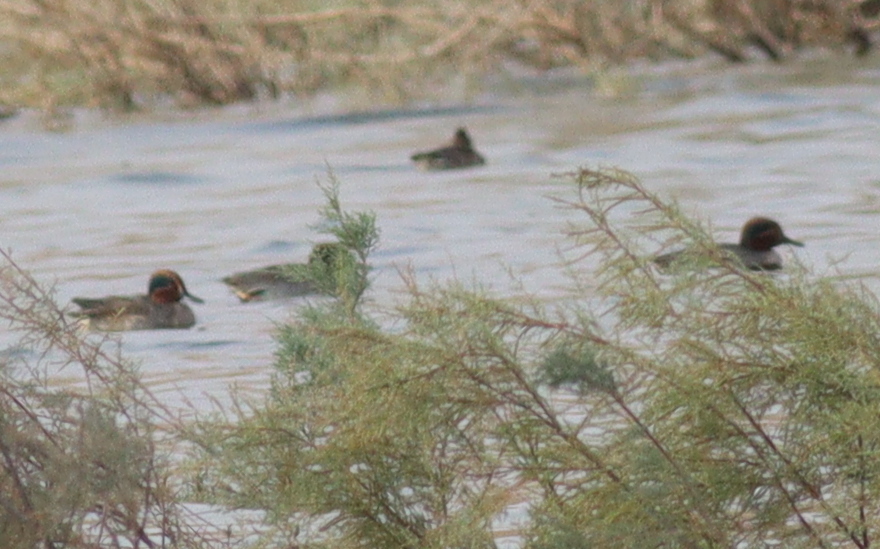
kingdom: Animalia
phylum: Chordata
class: Aves
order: Anseriformes
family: Anatidae
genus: Anas
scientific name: Anas crecca
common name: Eurasian teal
